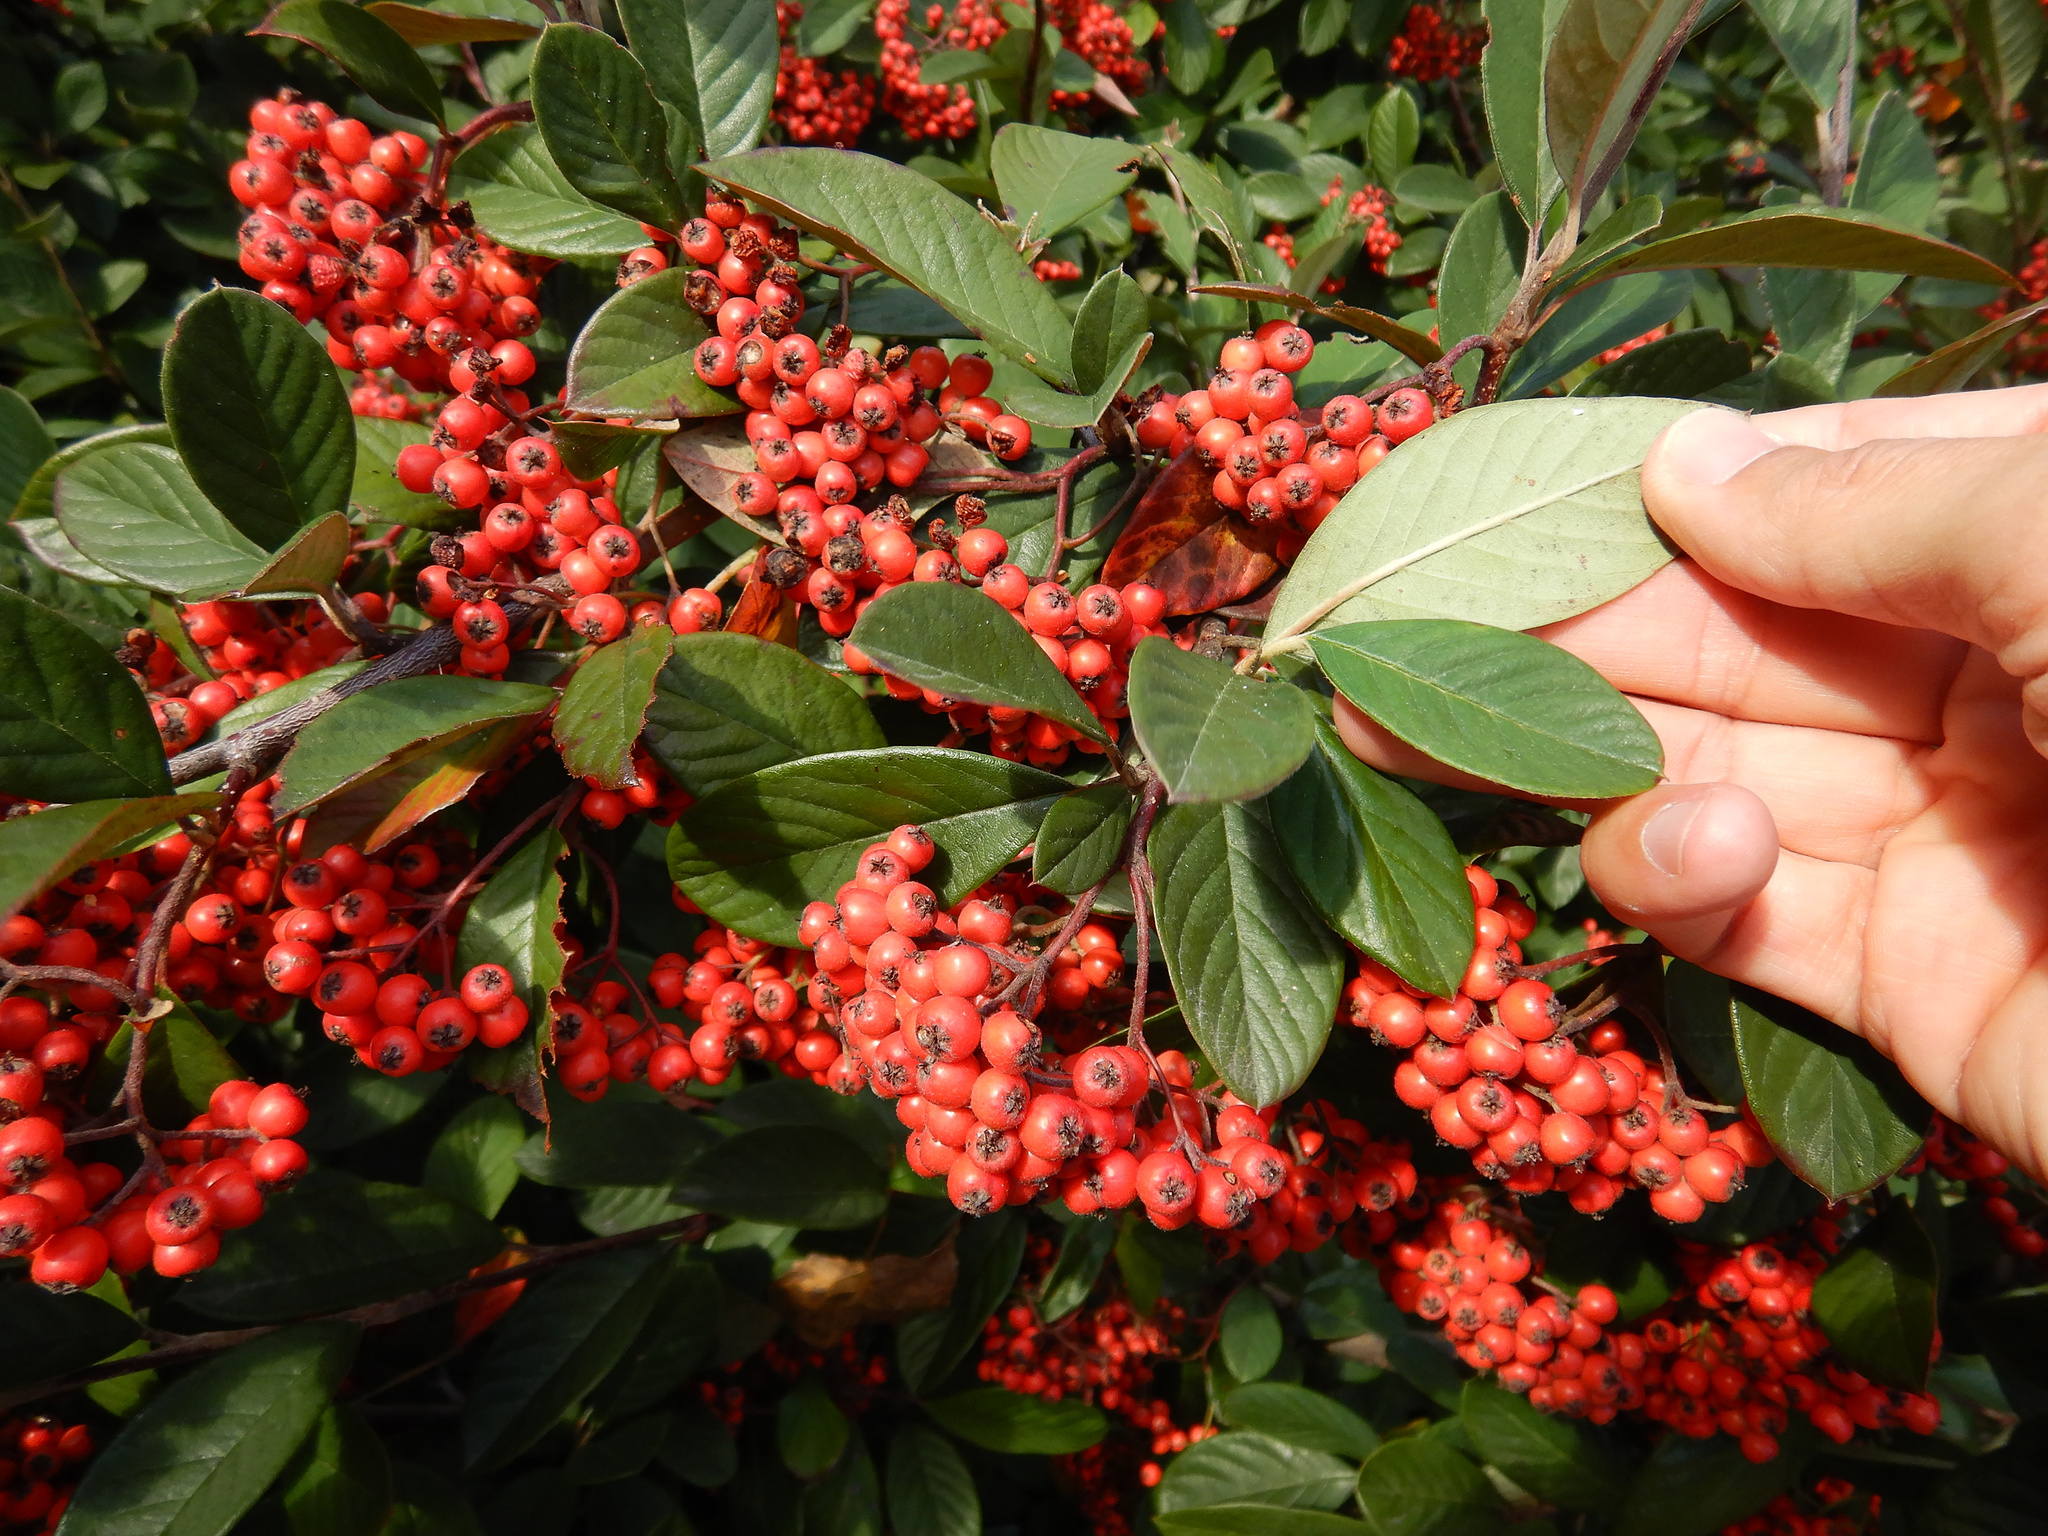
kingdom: Plantae
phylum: Tracheophyta
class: Magnoliopsida
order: Rosales
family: Rosaceae
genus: Cotoneaster
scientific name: Cotoneaster coriaceus
